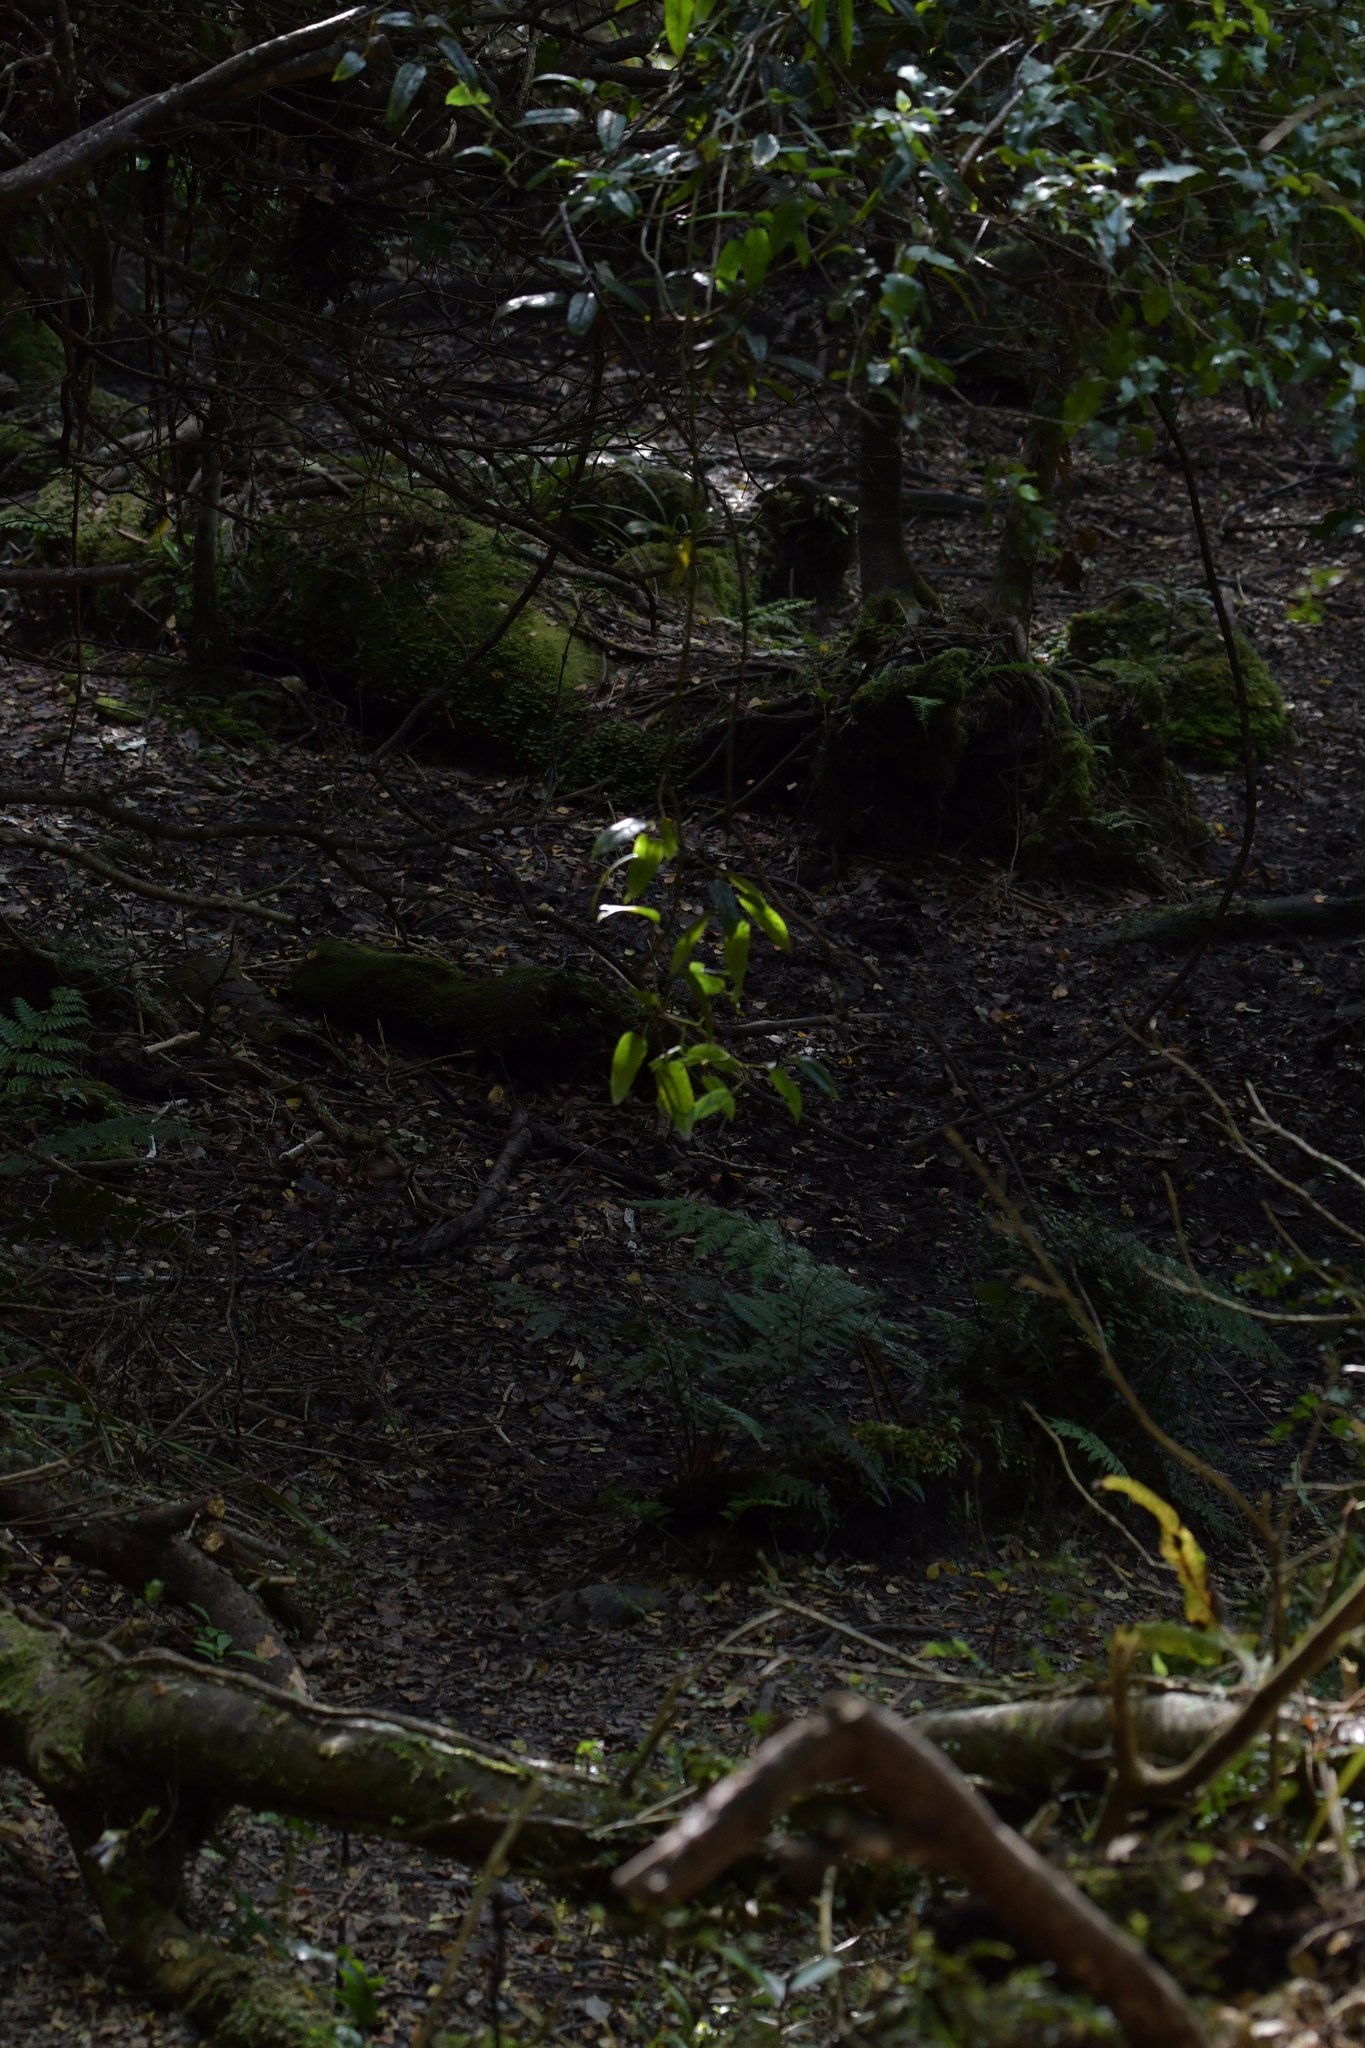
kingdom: Plantae
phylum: Tracheophyta
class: Magnoliopsida
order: Rosales
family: Rosaceae
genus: Rubus
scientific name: Rubus cissoides
